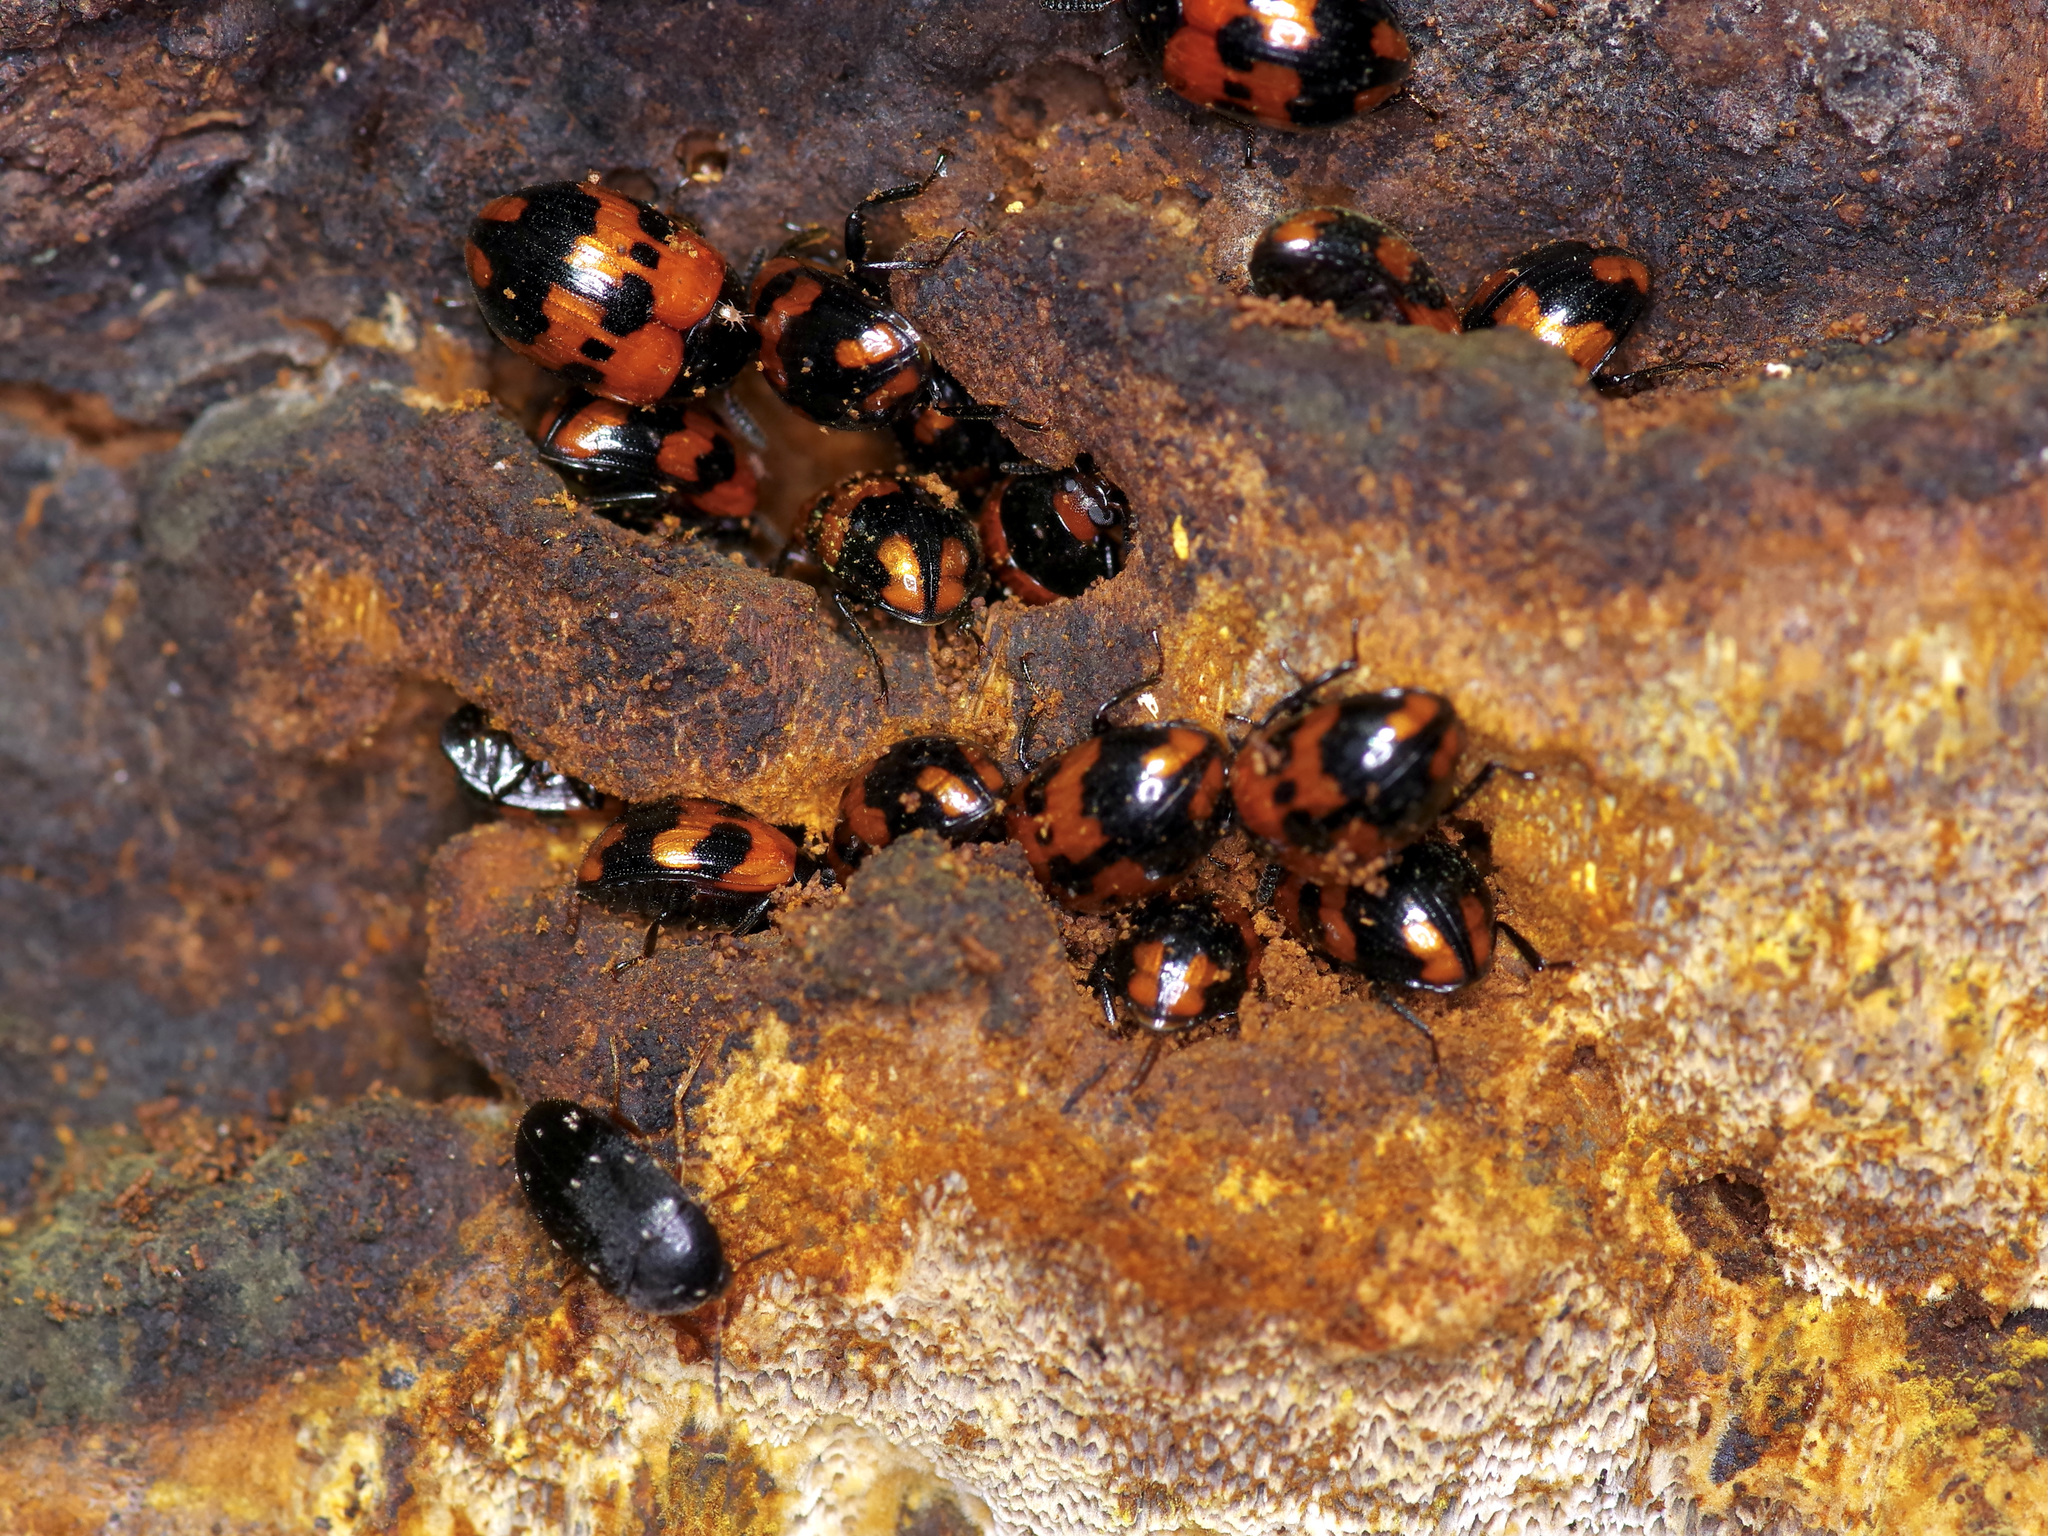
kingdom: Animalia
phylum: Arthropoda
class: Insecta
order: Coleoptera
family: Tenebrionidae
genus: Diaperis
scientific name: Diaperis nigronotata
